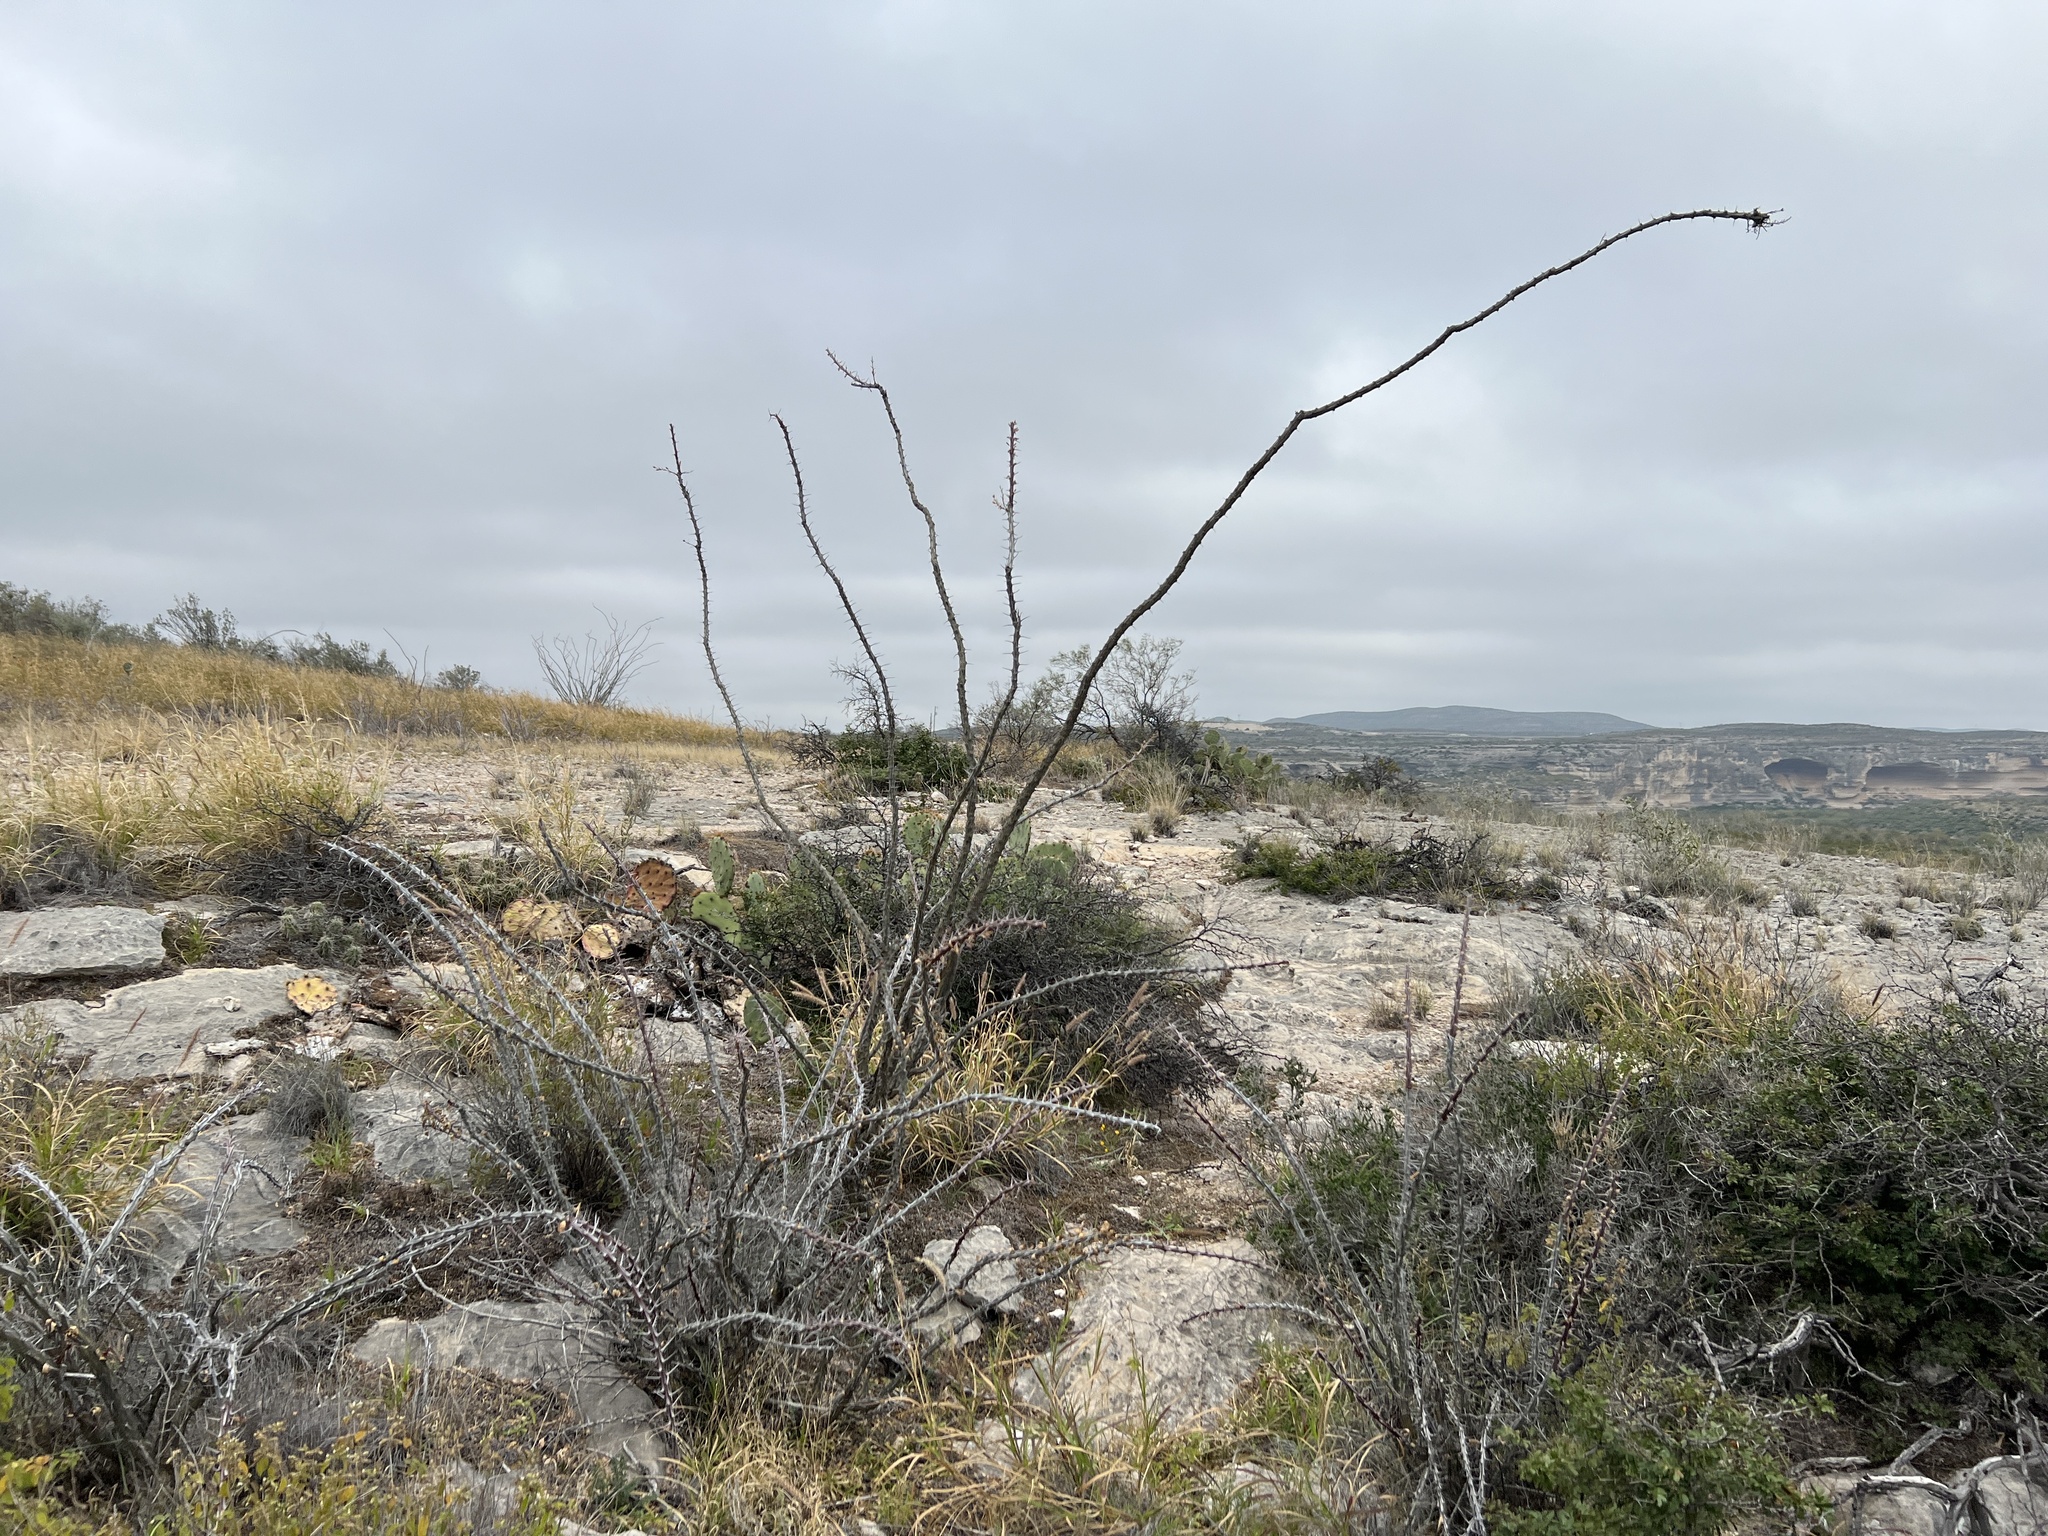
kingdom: Plantae
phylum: Tracheophyta
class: Magnoliopsida
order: Ericales
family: Fouquieriaceae
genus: Fouquieria
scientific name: Fouquieria splendens
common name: Vine-cactus
